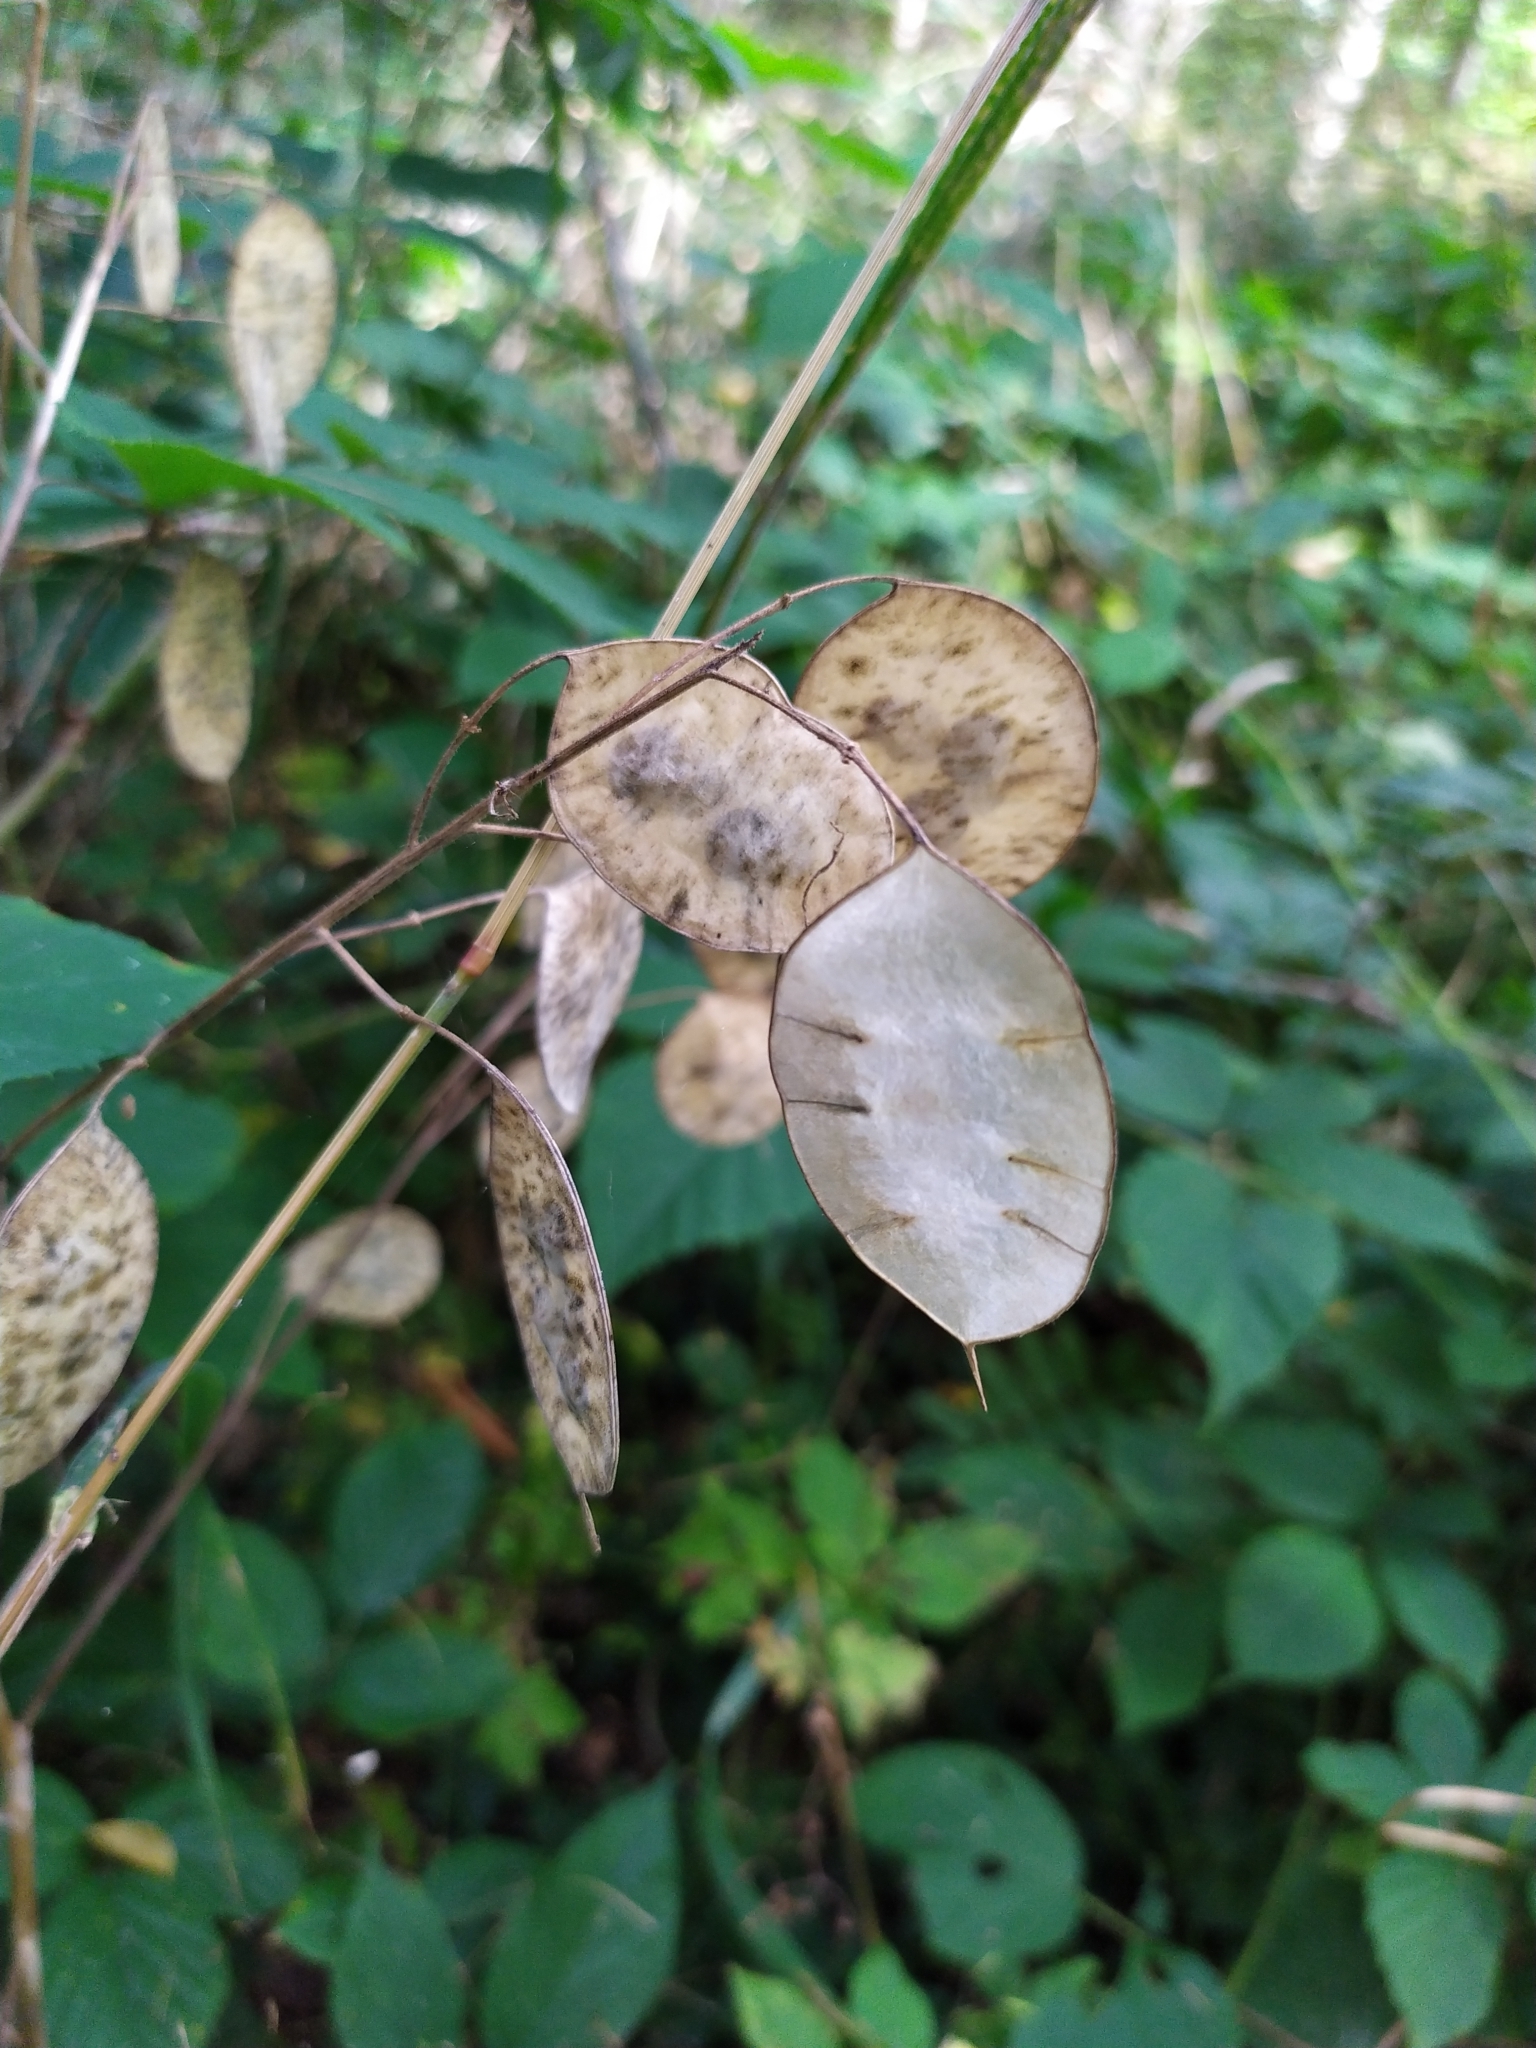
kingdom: Plantae
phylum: Tracheophyta
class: Magnoliopsida
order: Brassicales
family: Brassicaceae
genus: Lunaria
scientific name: Lunaria annua
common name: Honesty
